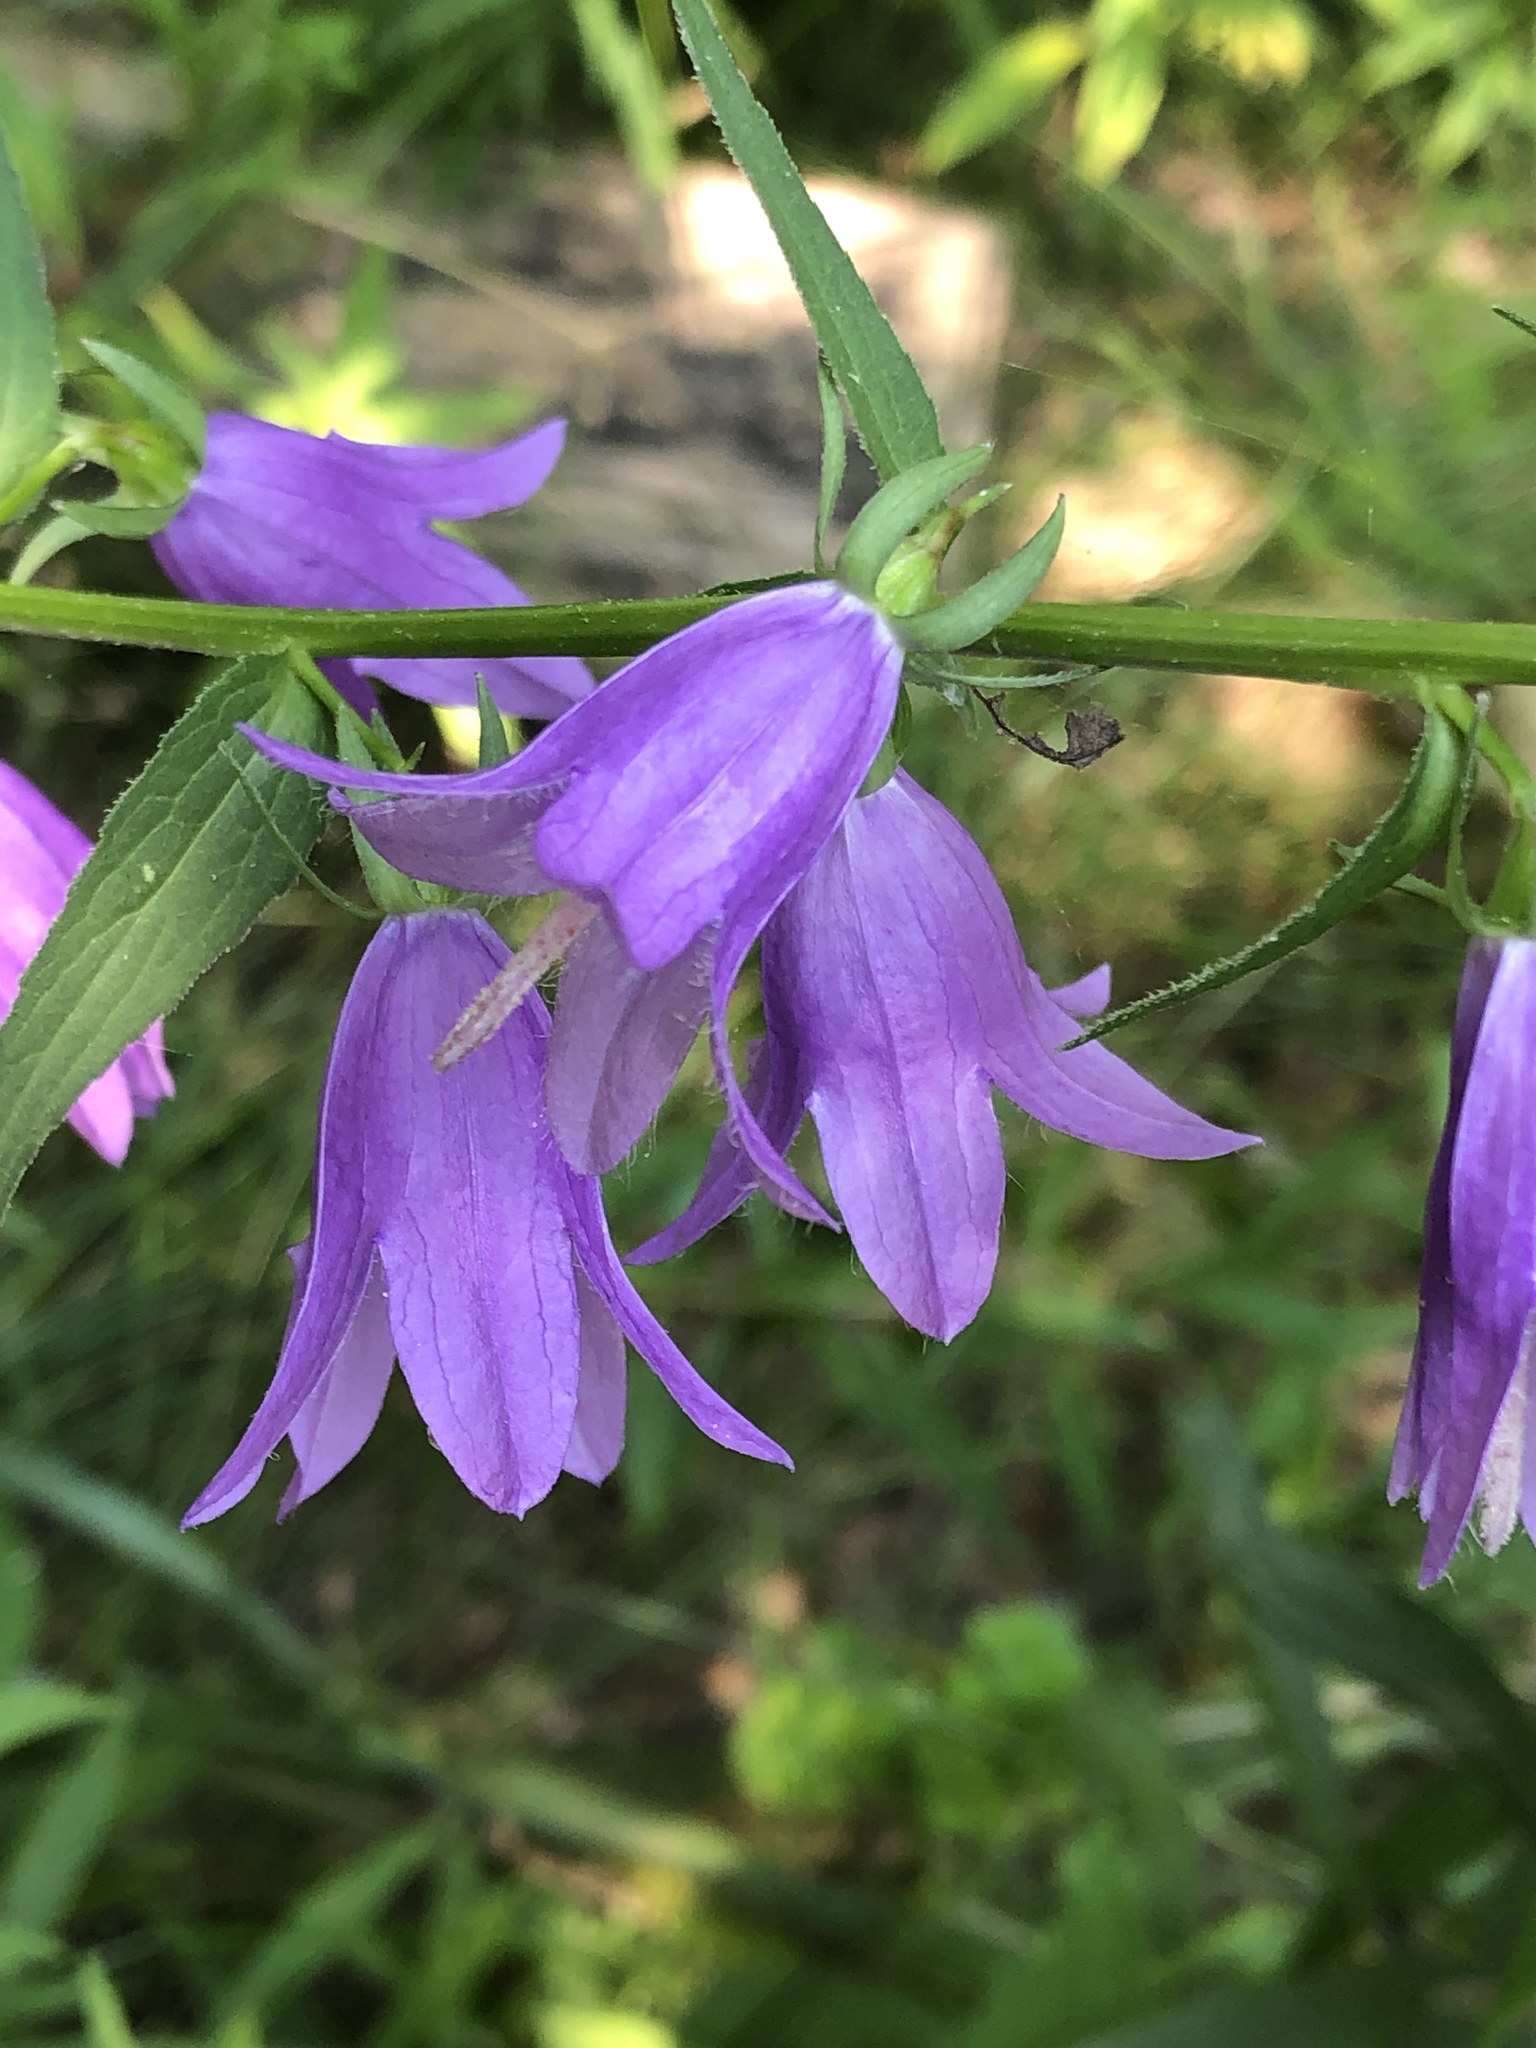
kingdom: Plantae
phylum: Tracheophyta
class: Magnoliopsida
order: Asterales
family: Campanulaceae
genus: Campanula
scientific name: Campanula rapunculoides
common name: Creeping bellflower
